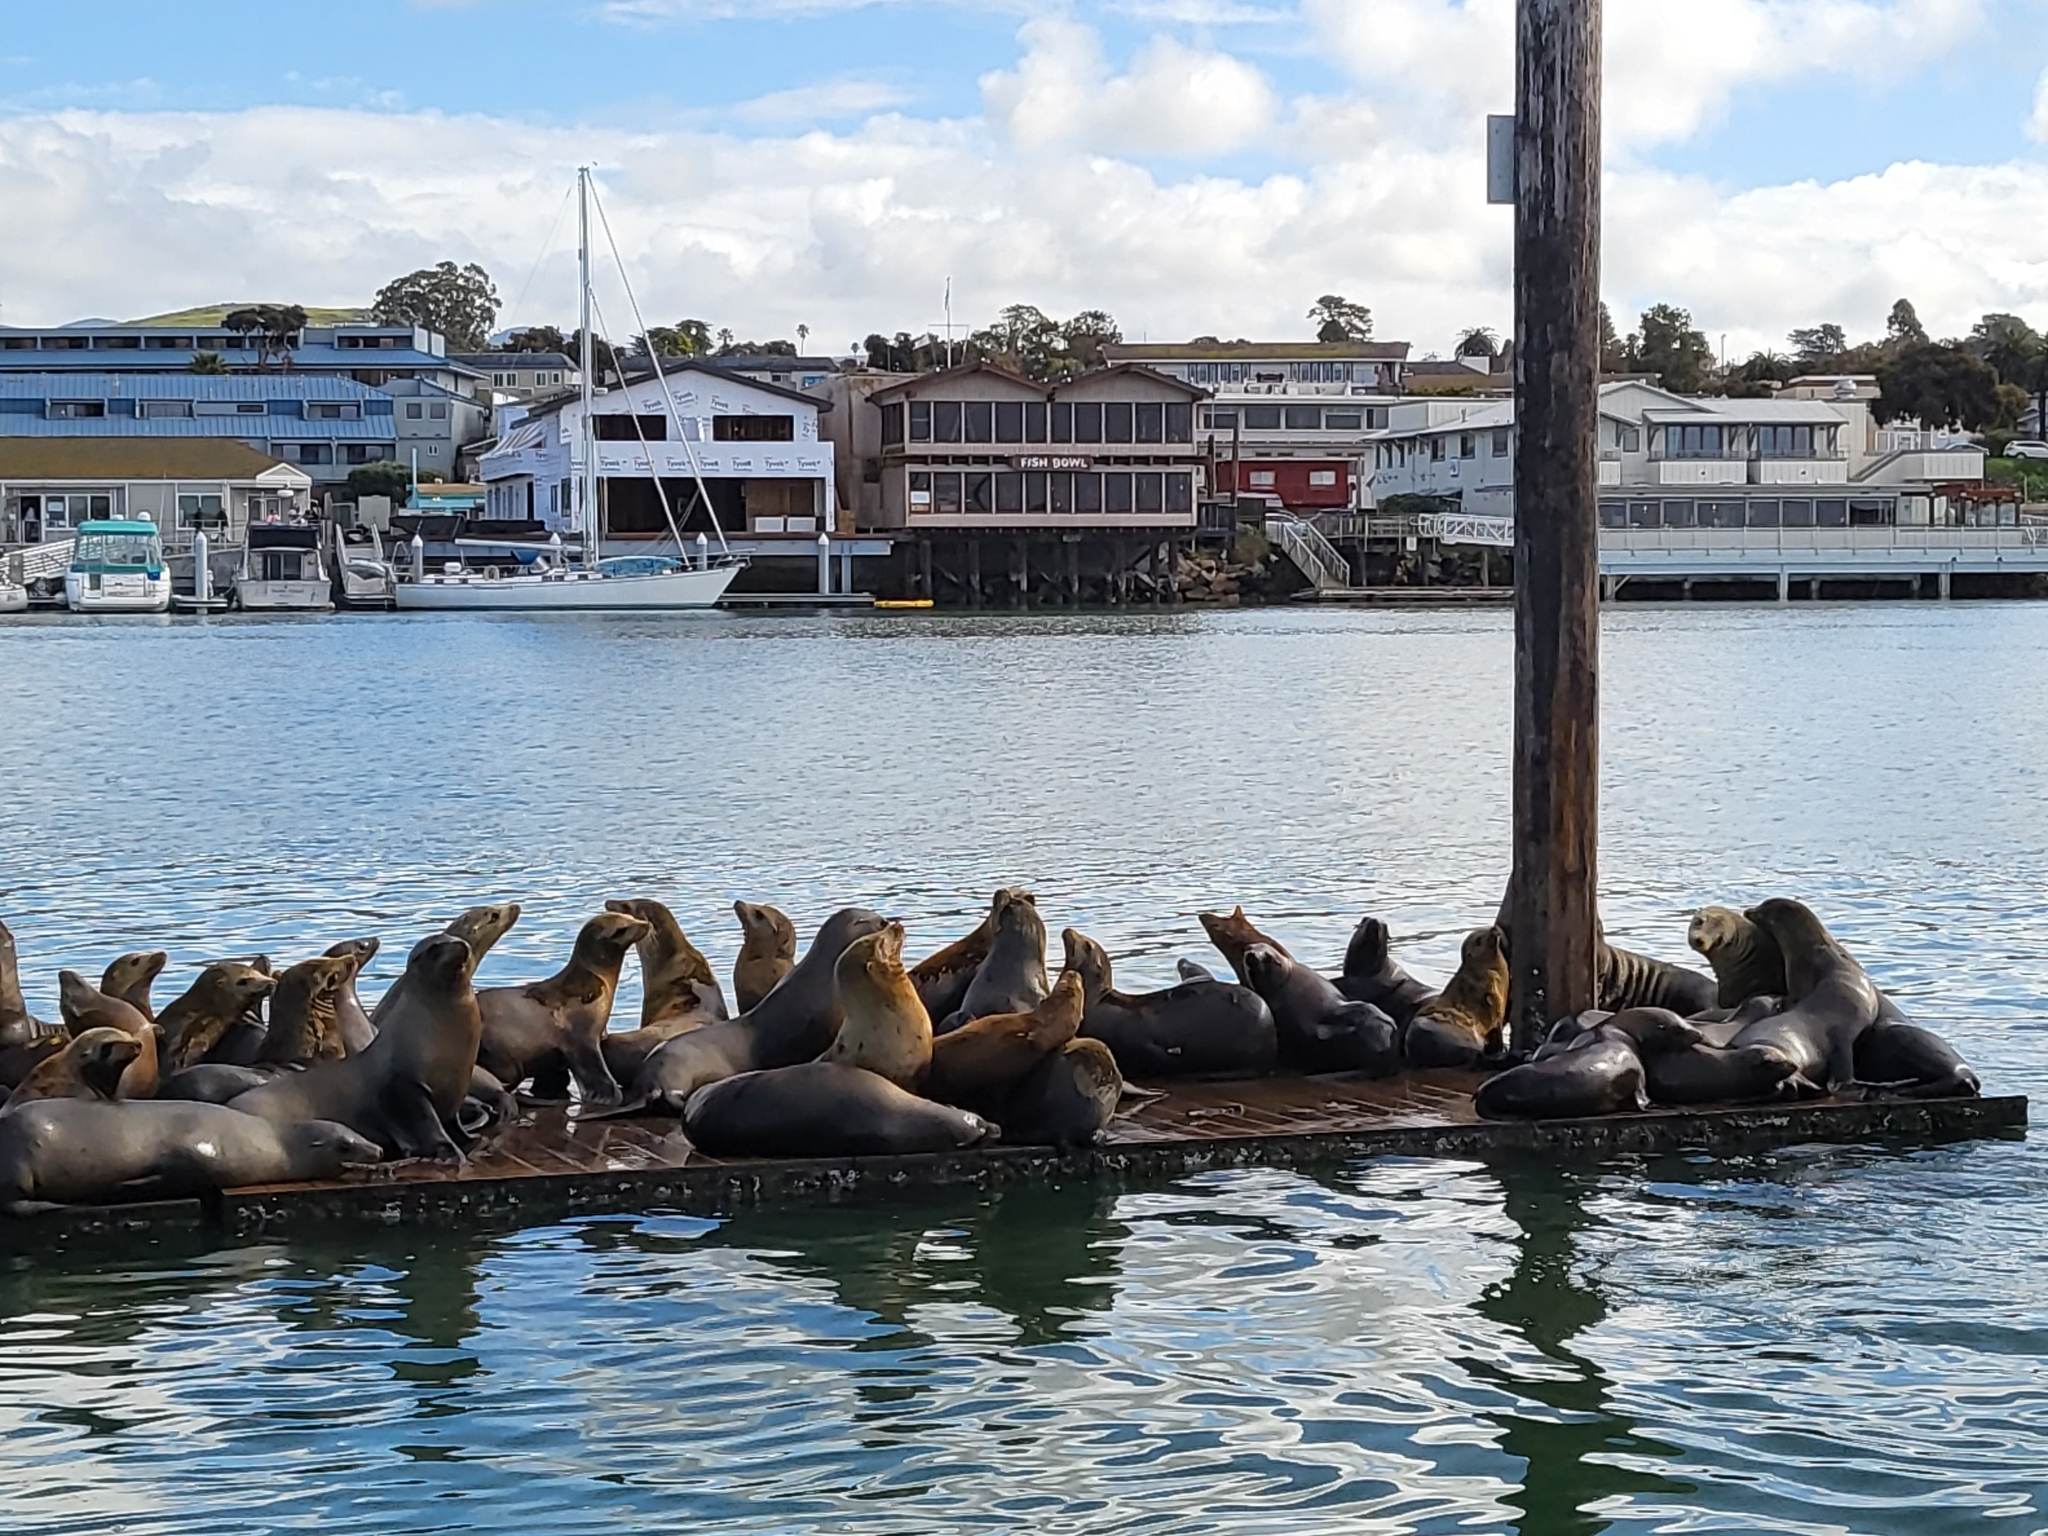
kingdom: Animalia
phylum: Chordata
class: Mammalia
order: Carnivora
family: Otariidae
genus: Zalophus
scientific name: Zalophus californianus
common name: California sea lion
